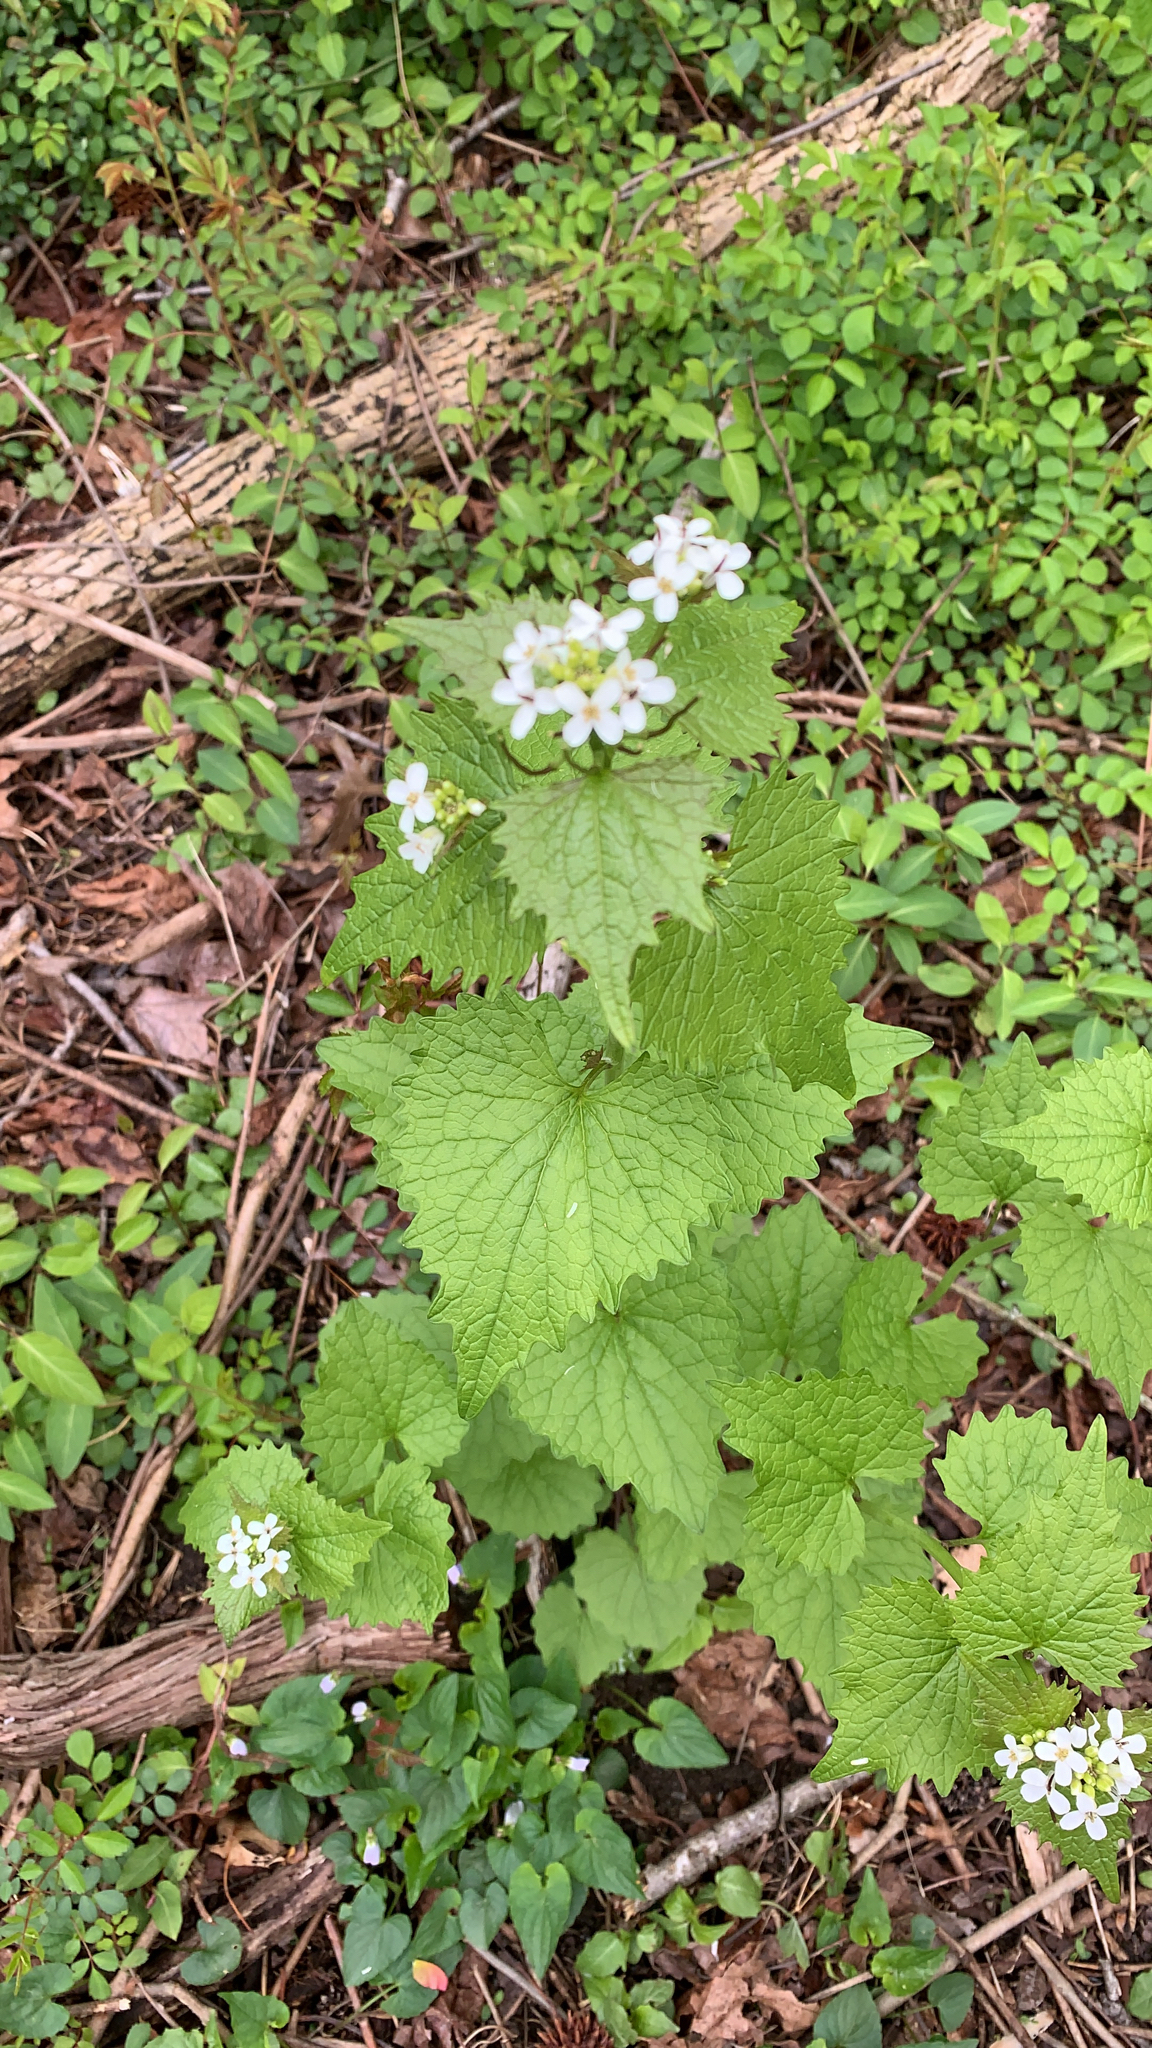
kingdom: Plantae
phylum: Tracheophyta
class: Magnoliopsida
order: Brassicales
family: Brassicaceae
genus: Alliaria
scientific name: Alliaria petiolata
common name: Garlic mustard
